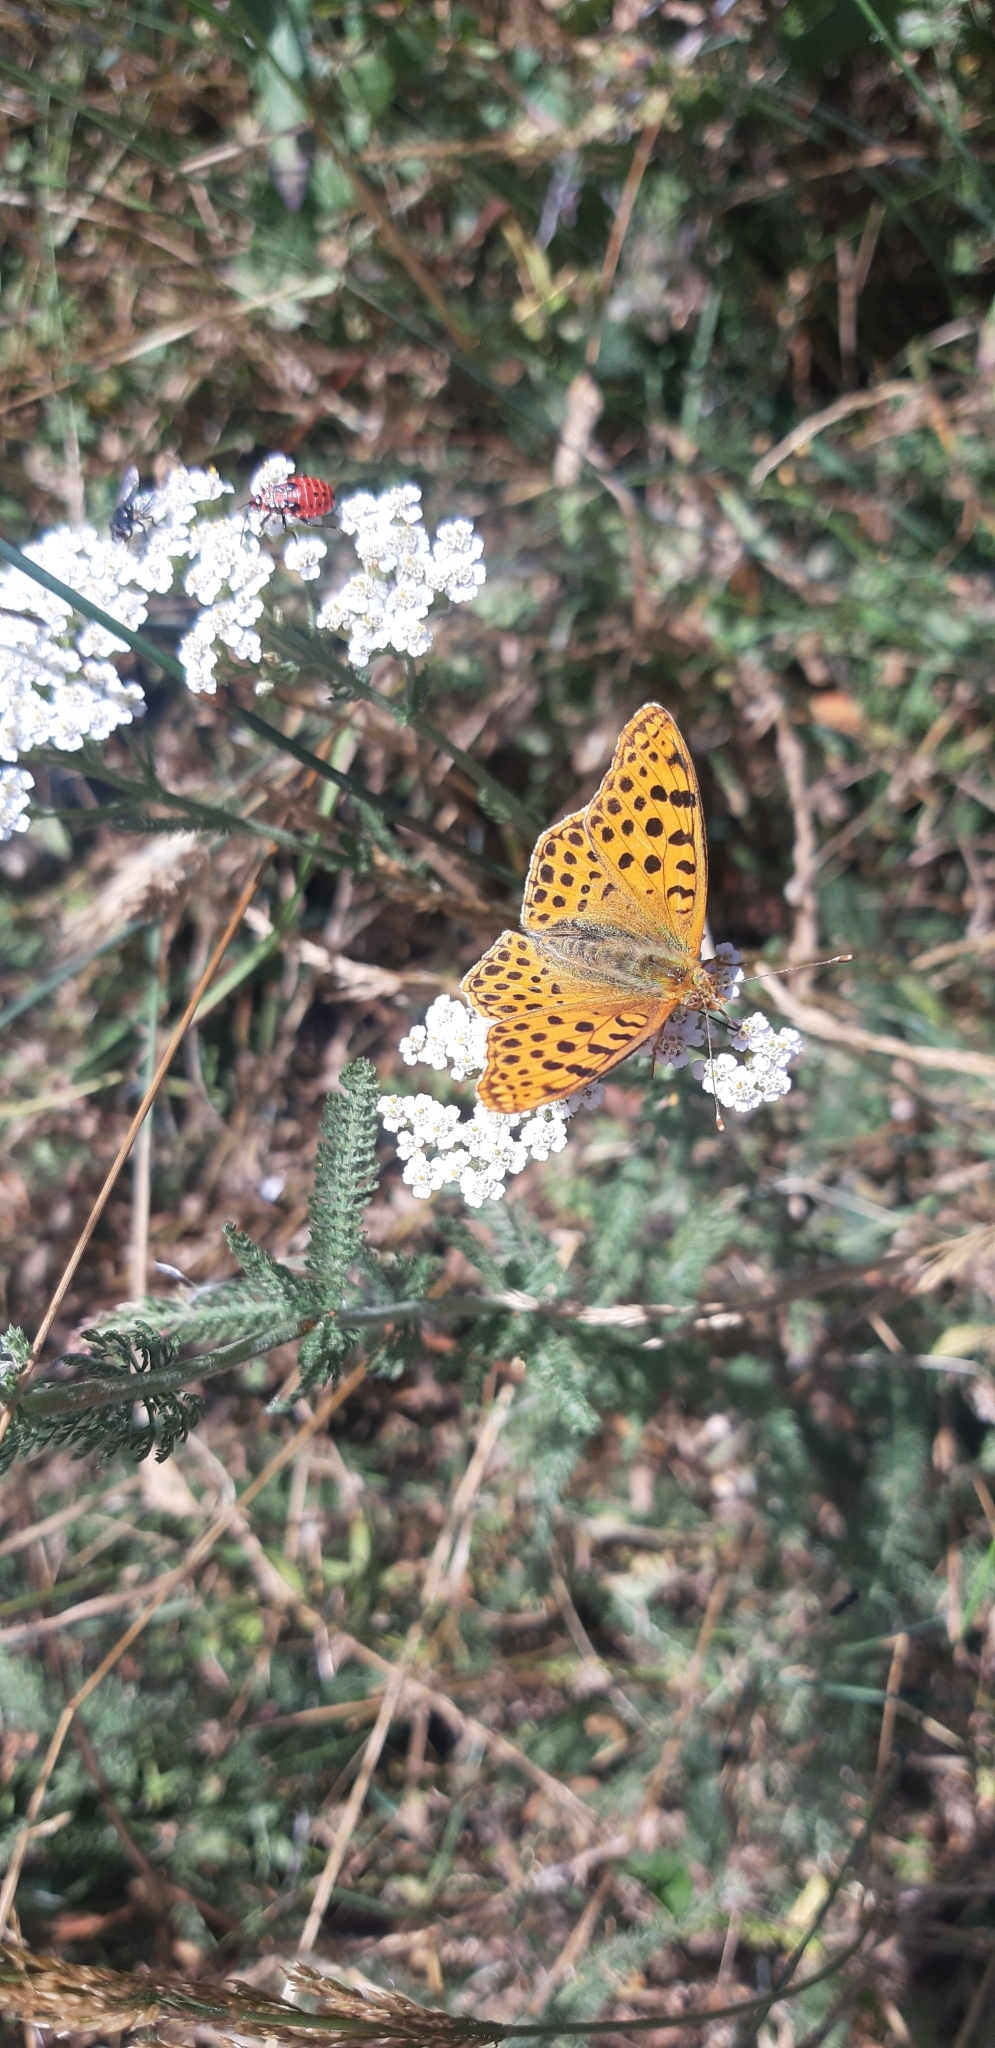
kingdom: Animalia
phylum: Arthropoda
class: Insecta
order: Lepidoptera
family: Nymphalidae
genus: Issoria
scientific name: Issoria lathonia
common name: Queen of spain fritillary
